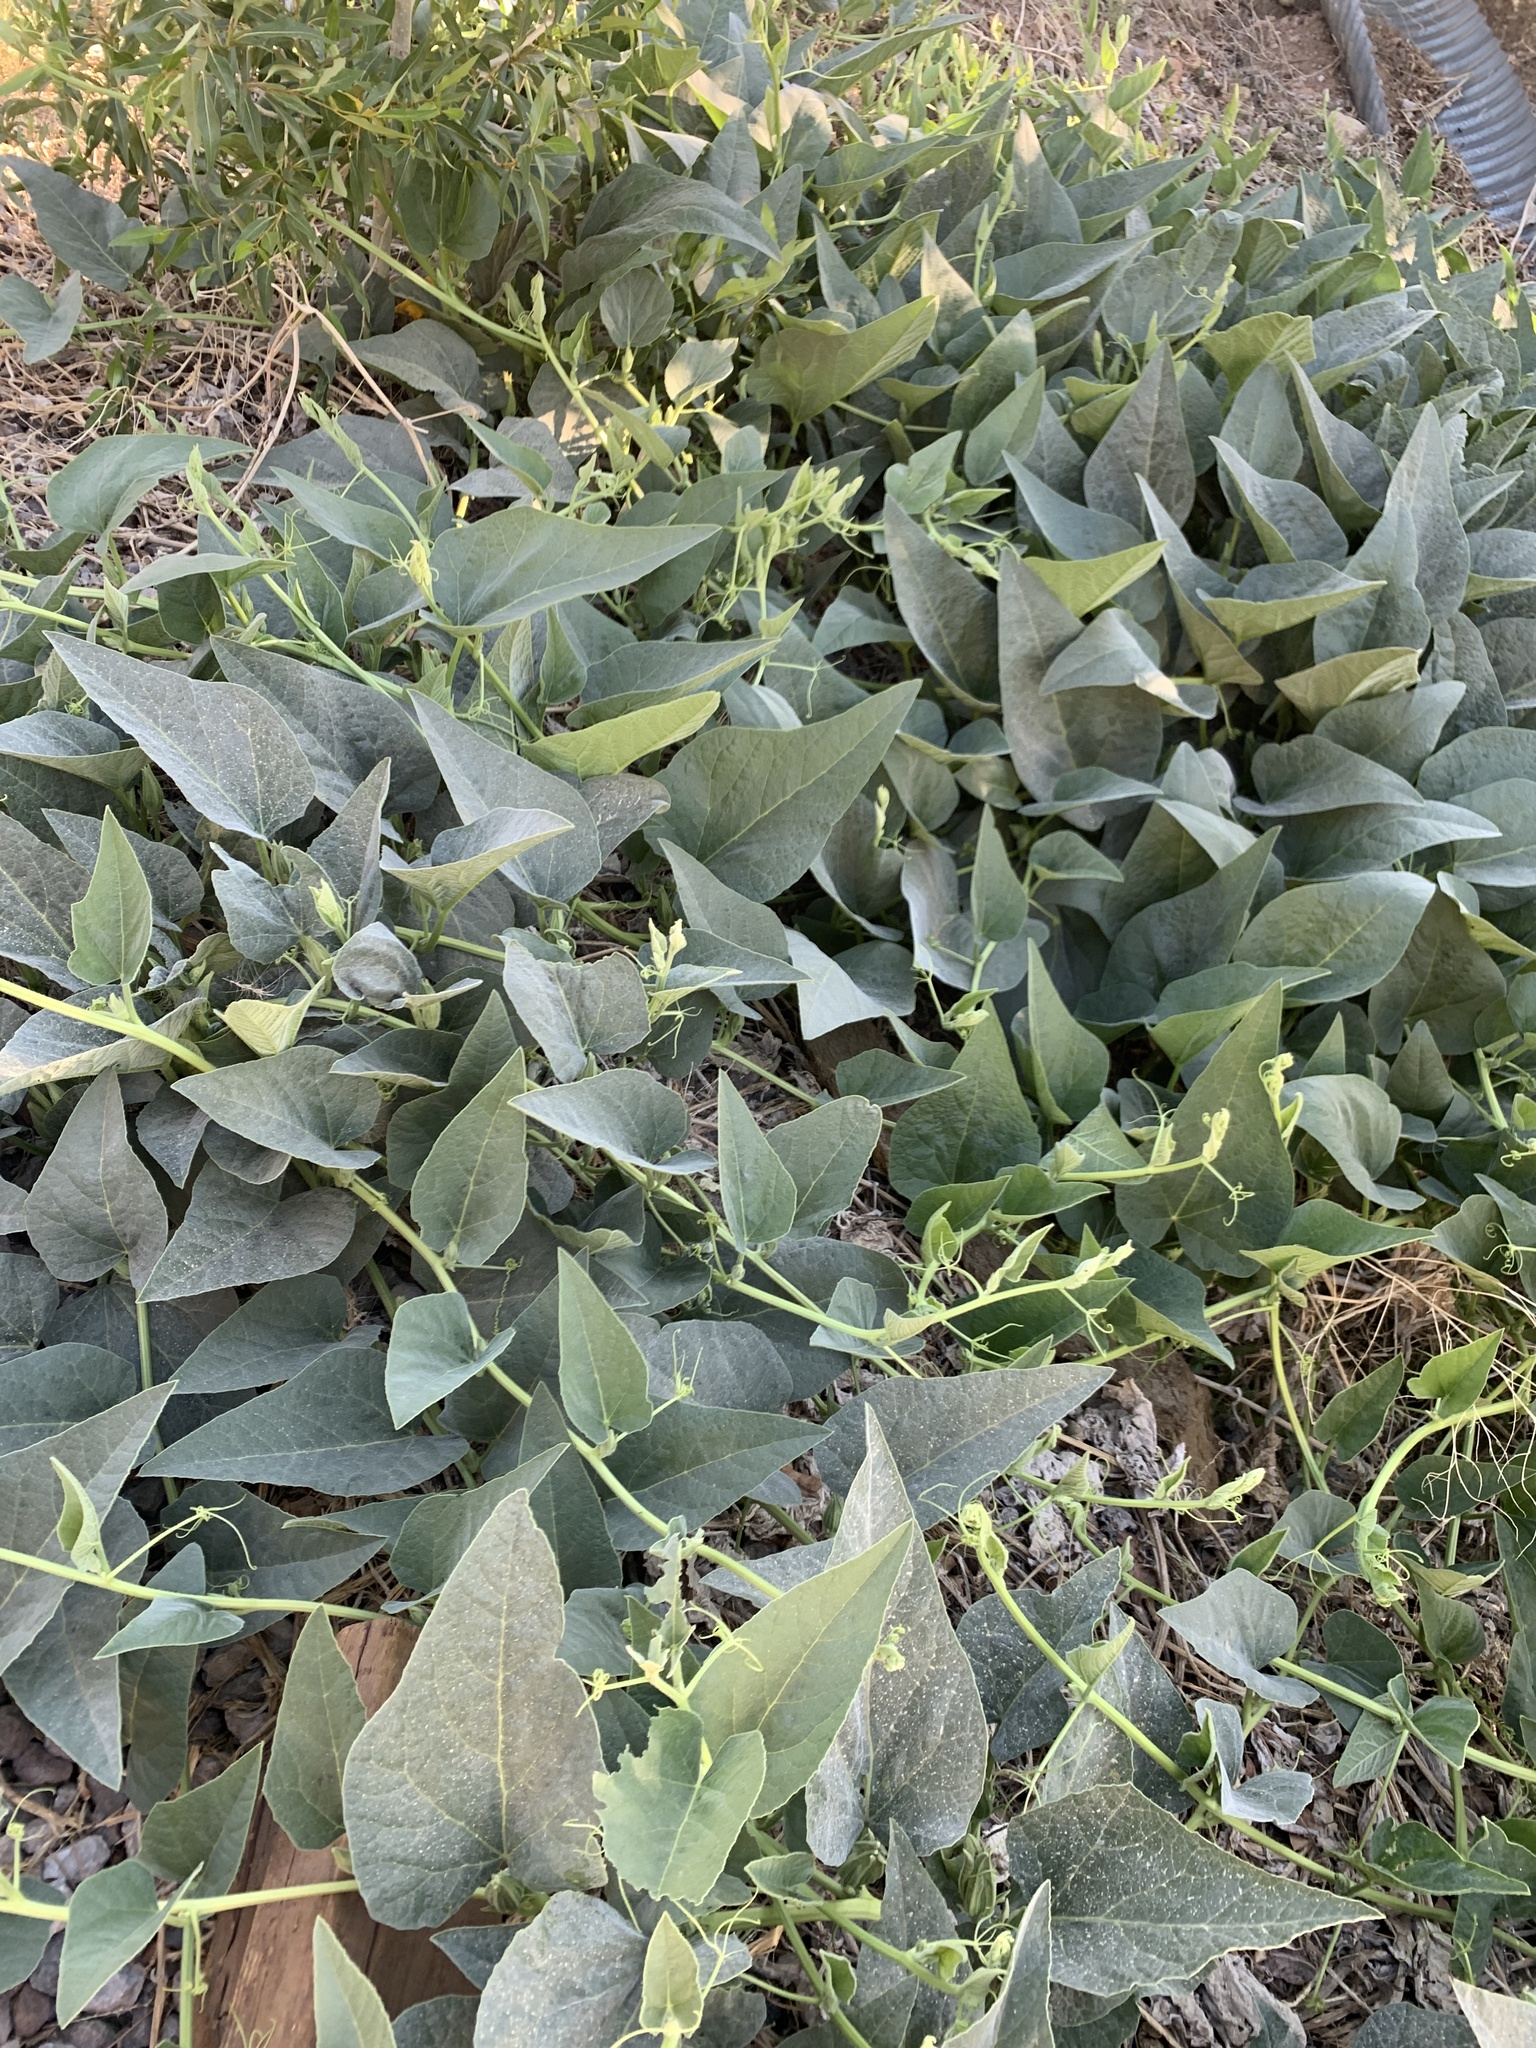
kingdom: Plantae
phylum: Tracheophyta
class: Magnoliopsida
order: Cucurbitales
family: Cucurbitaceae
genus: Cucurbita
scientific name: Cucurbita foetidissima
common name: Buffalo gourd
